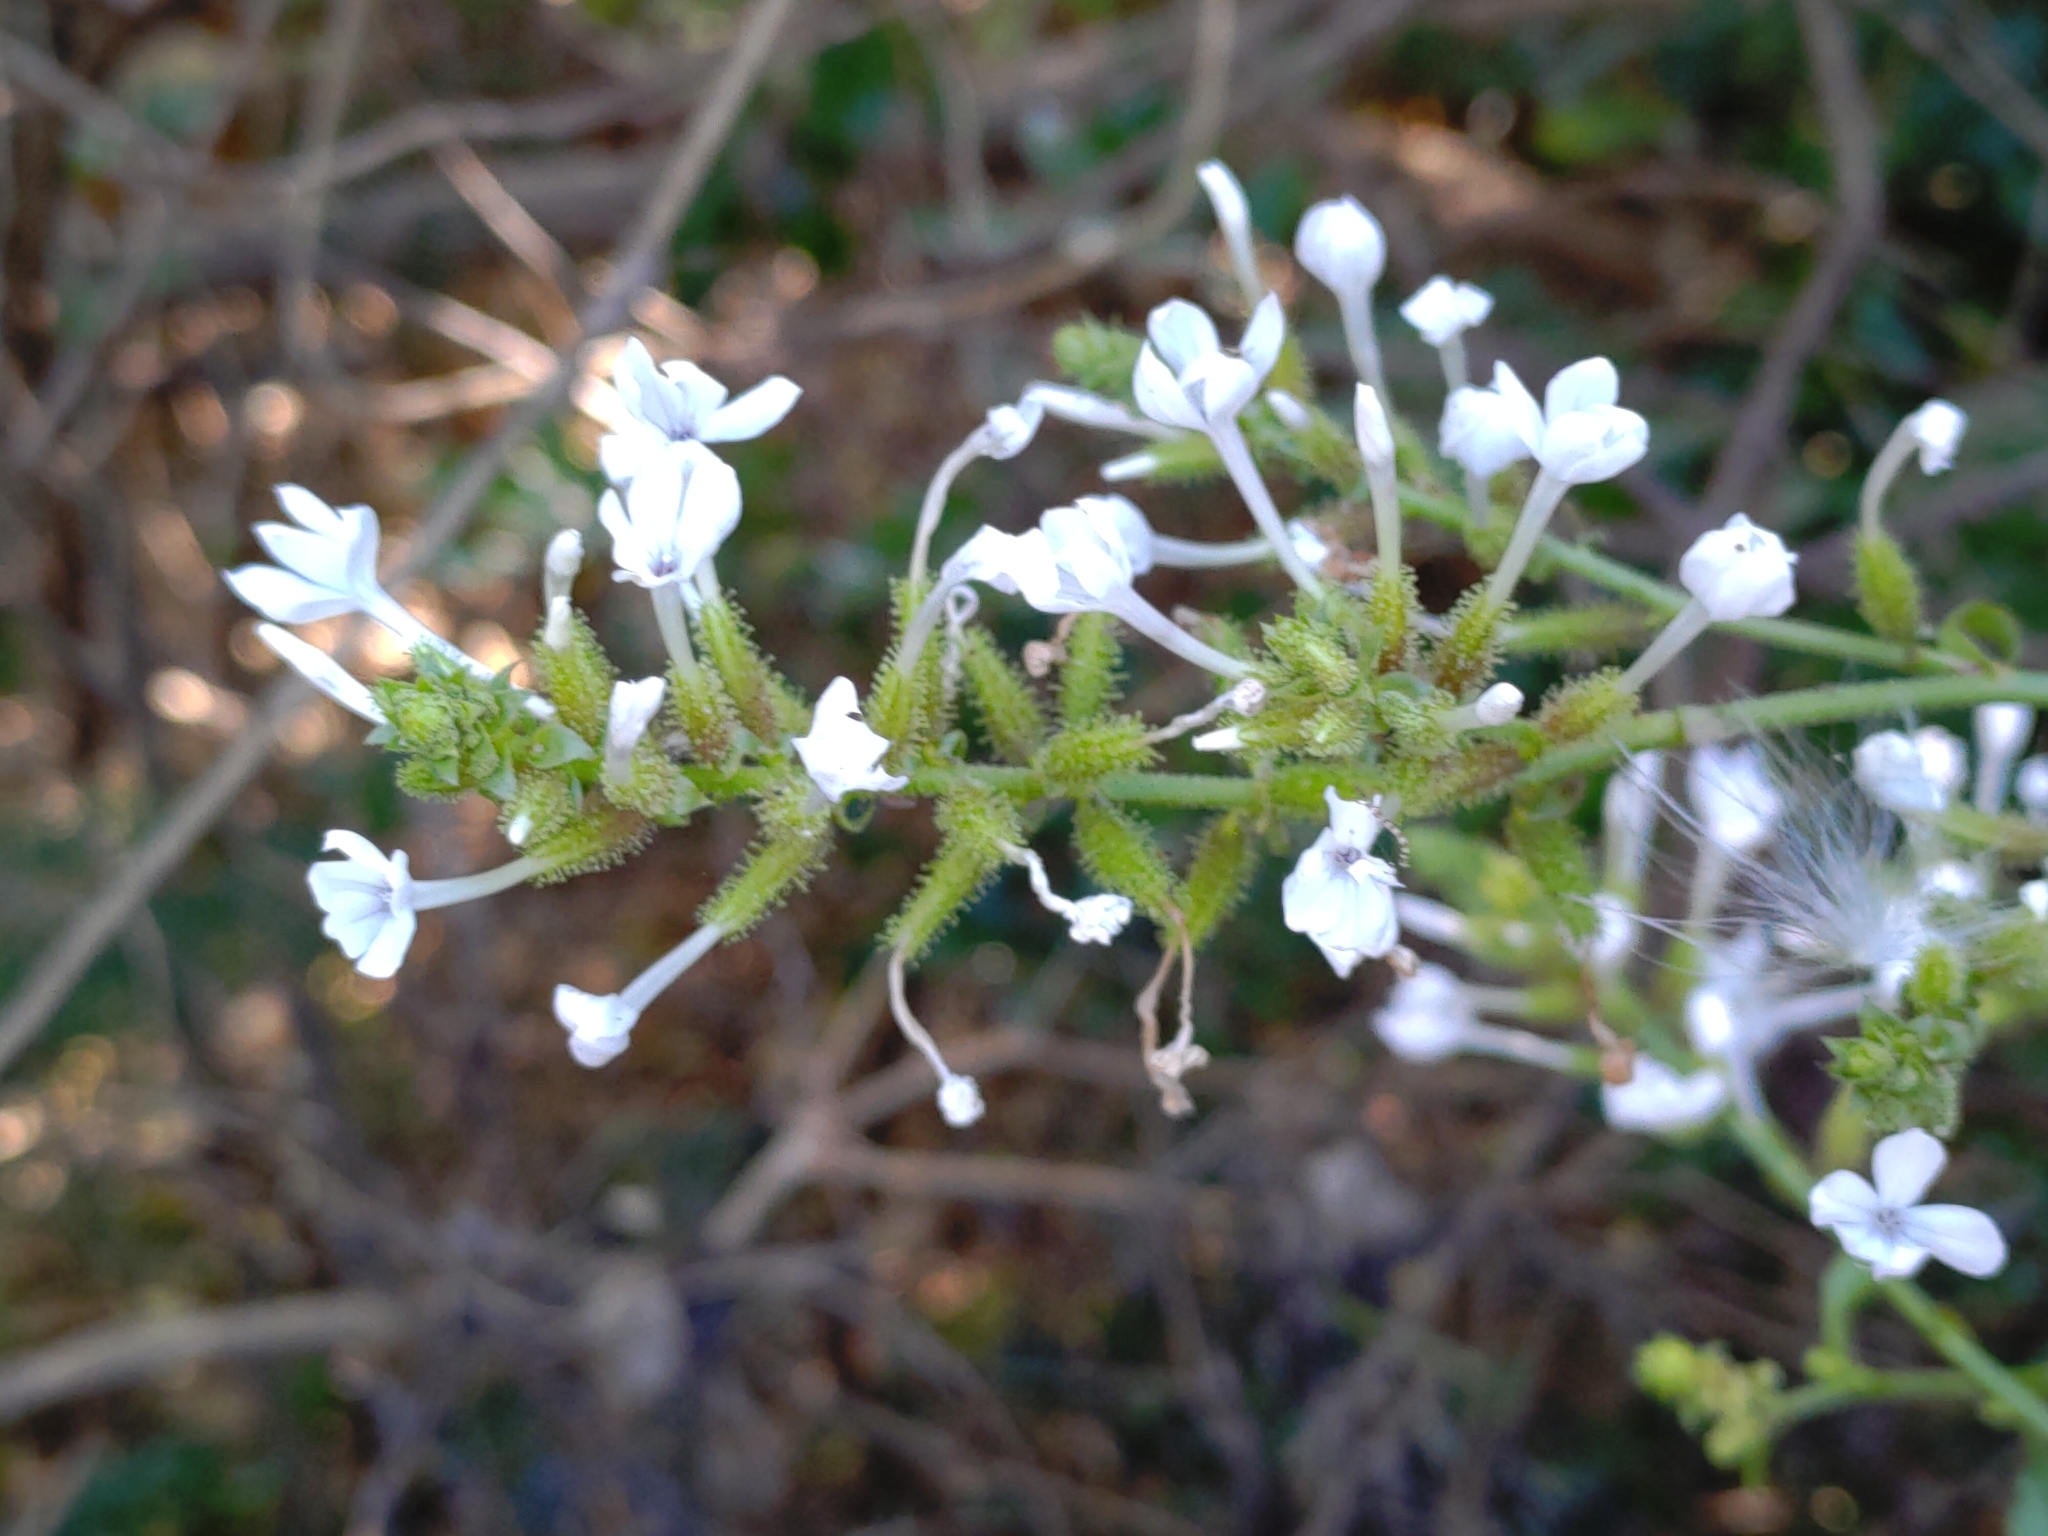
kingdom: Plantae
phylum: Tracheophyta
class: Magnoliopsida
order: Caryophyllales
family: Plumbaginaceae
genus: Plumbago
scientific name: Plumbago zeylanica
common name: Doctorbush
